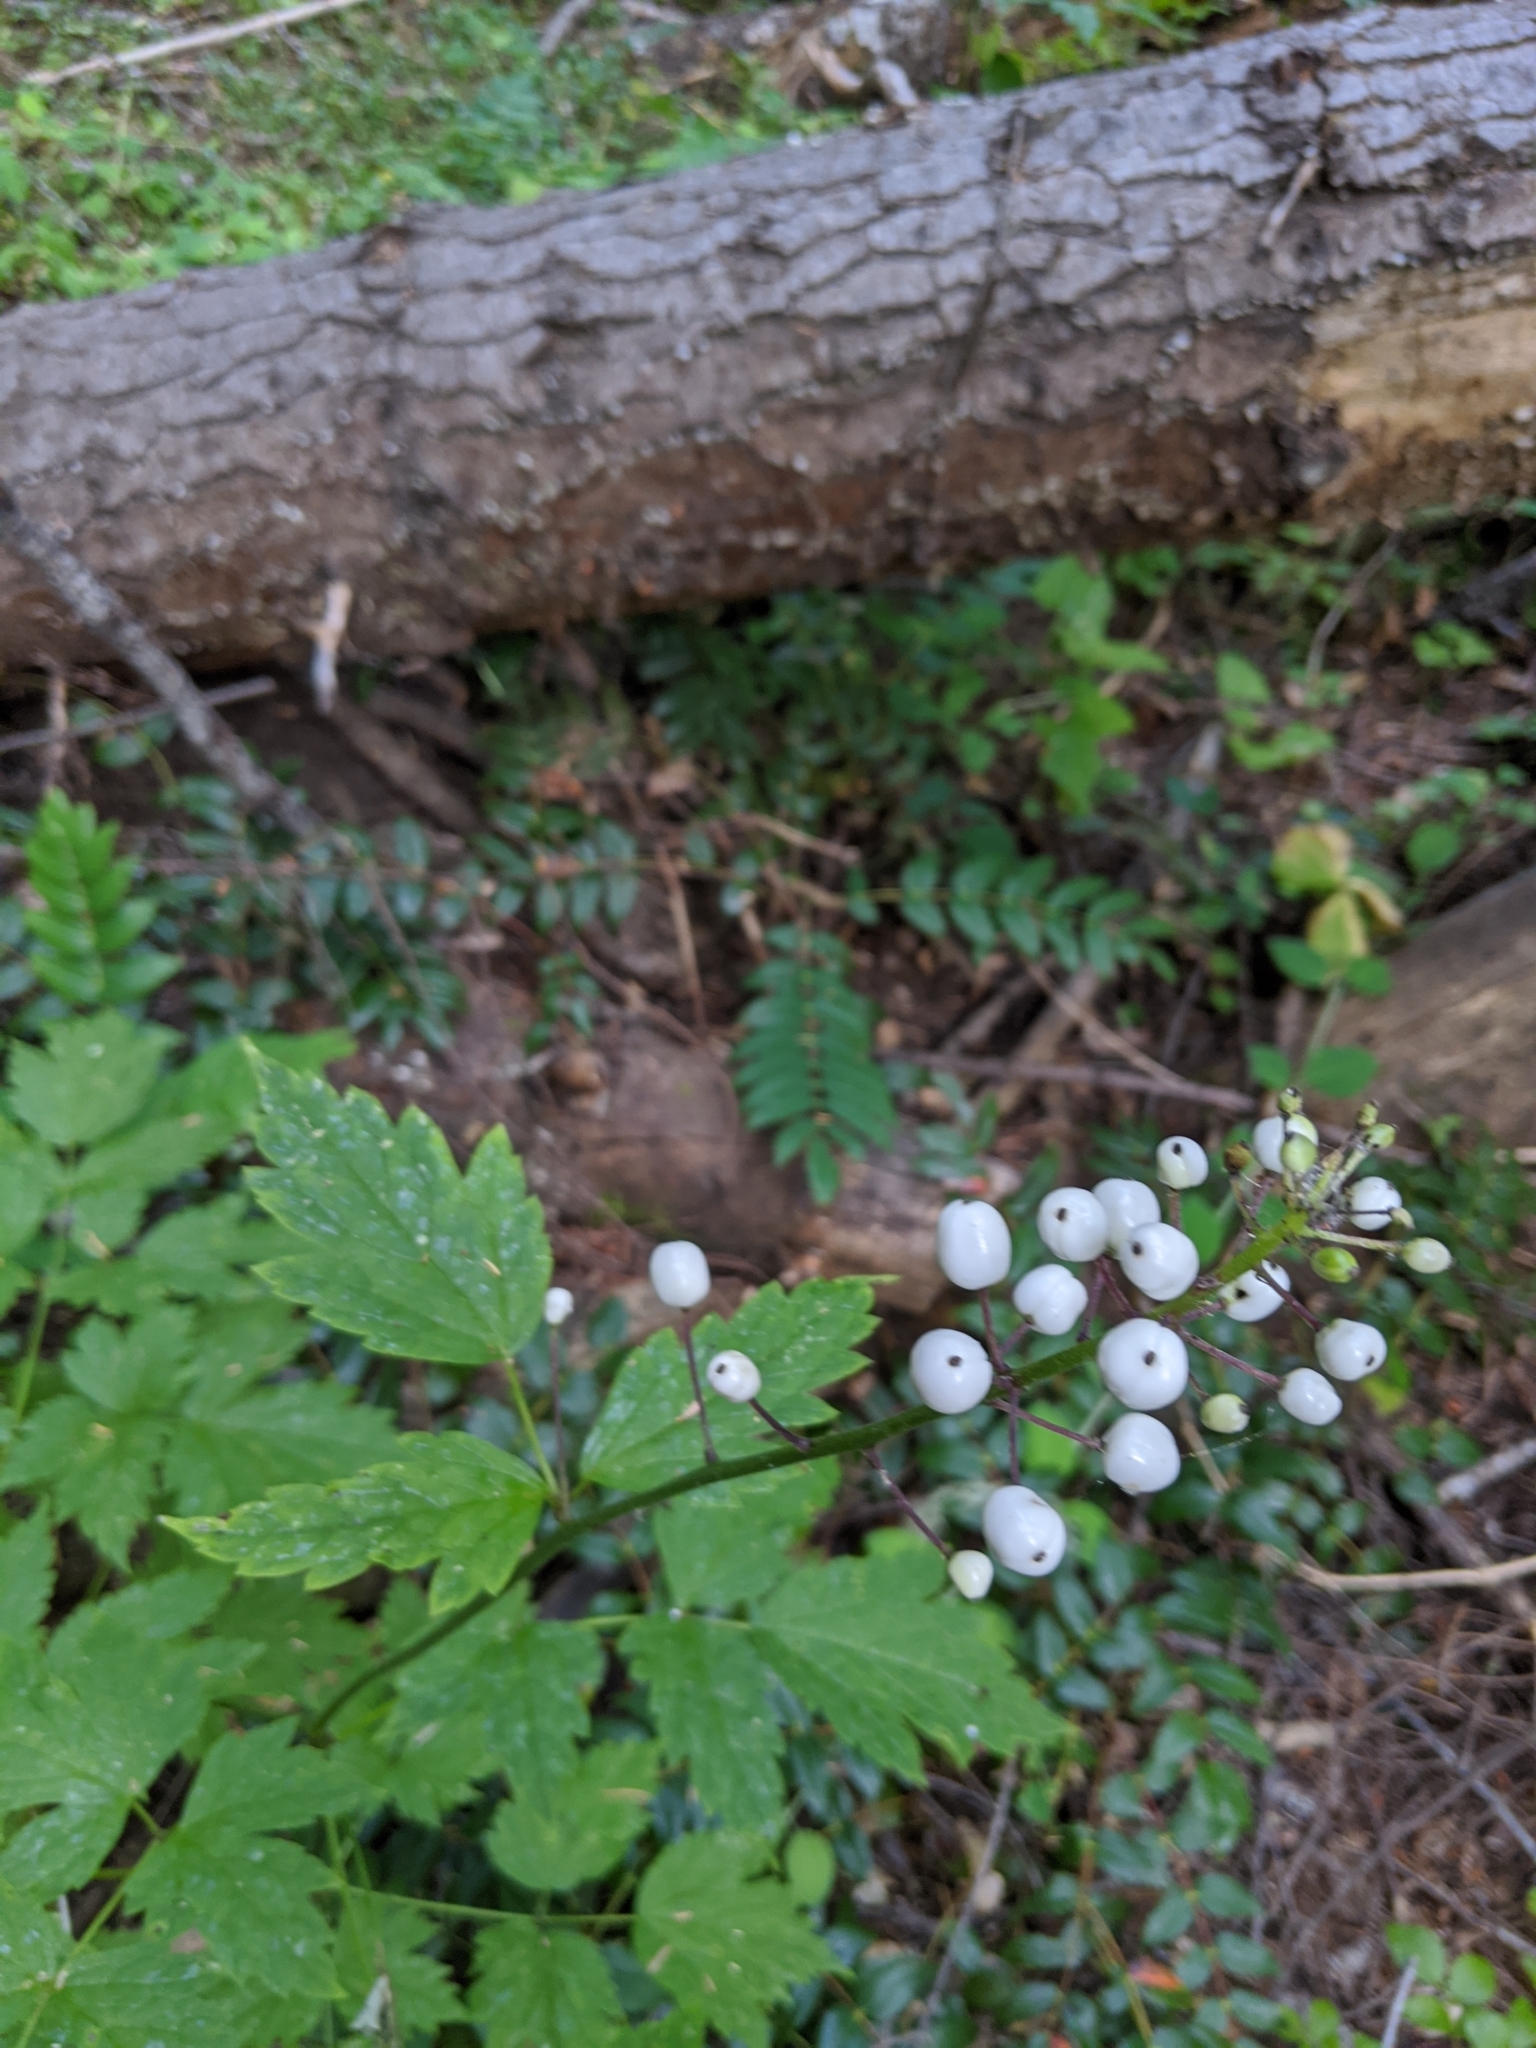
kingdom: Plantae
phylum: Tracheophyta
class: Magnoliopsida
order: Ranunculales
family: Ranunculaceae
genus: Actaea
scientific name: Actaea rubra
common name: Red baneberry
